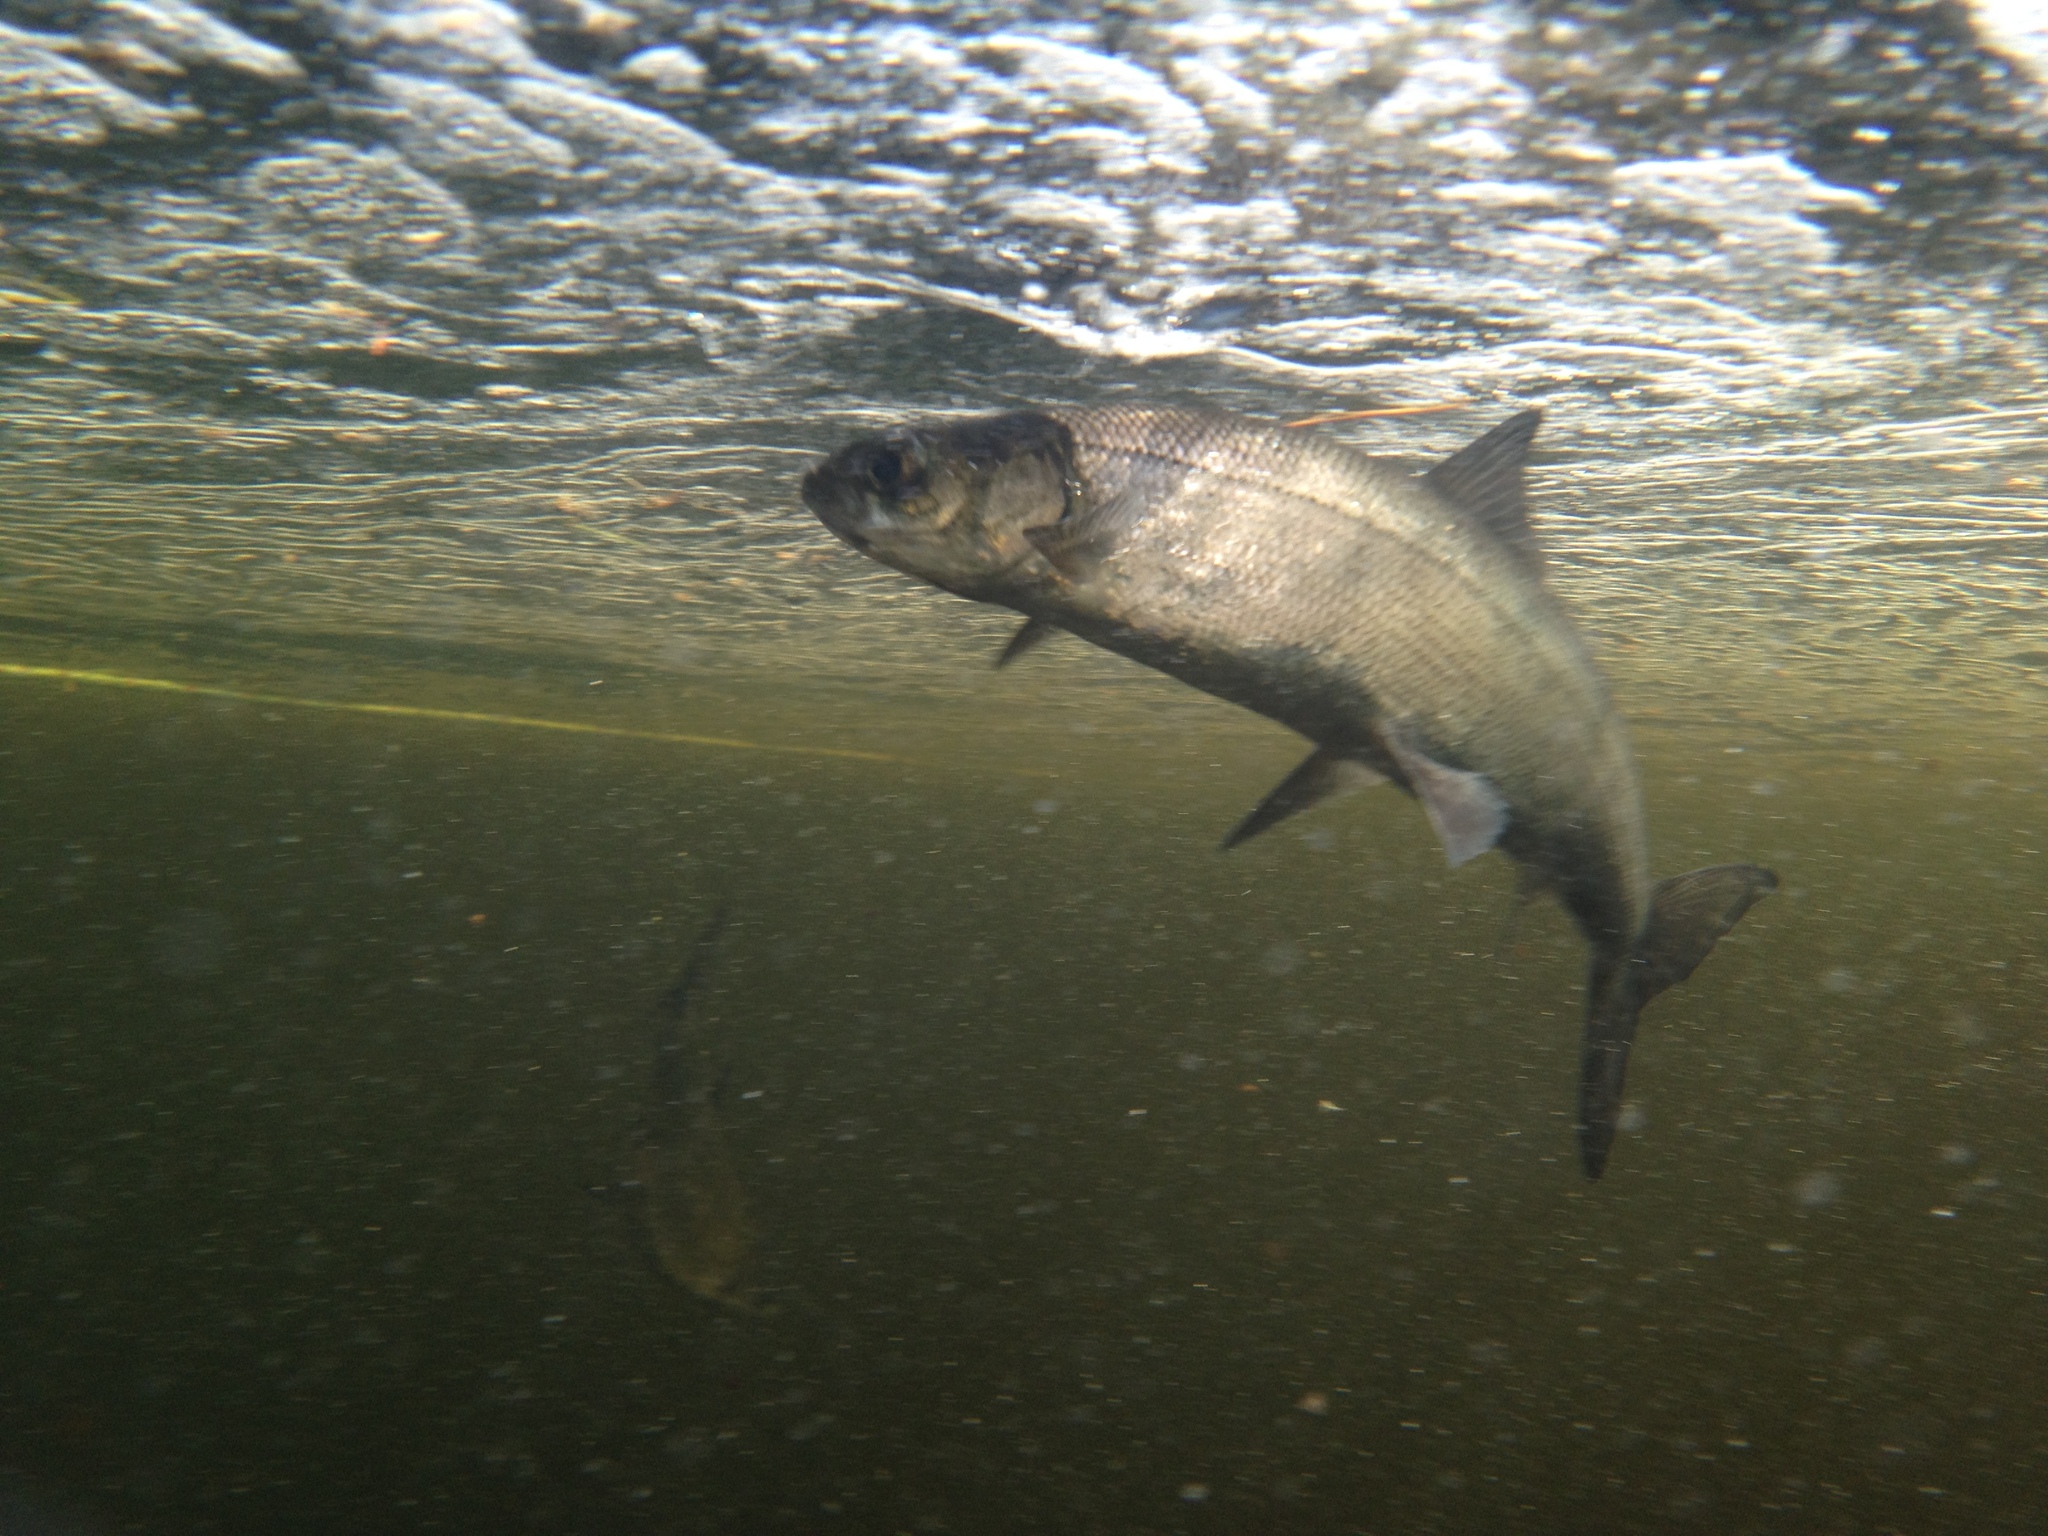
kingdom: Animalia
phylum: Chordata
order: Salmoniformes
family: Salmonidae
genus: Coregonus
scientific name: Coregonus huntsmani
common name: Acadian whitefish
